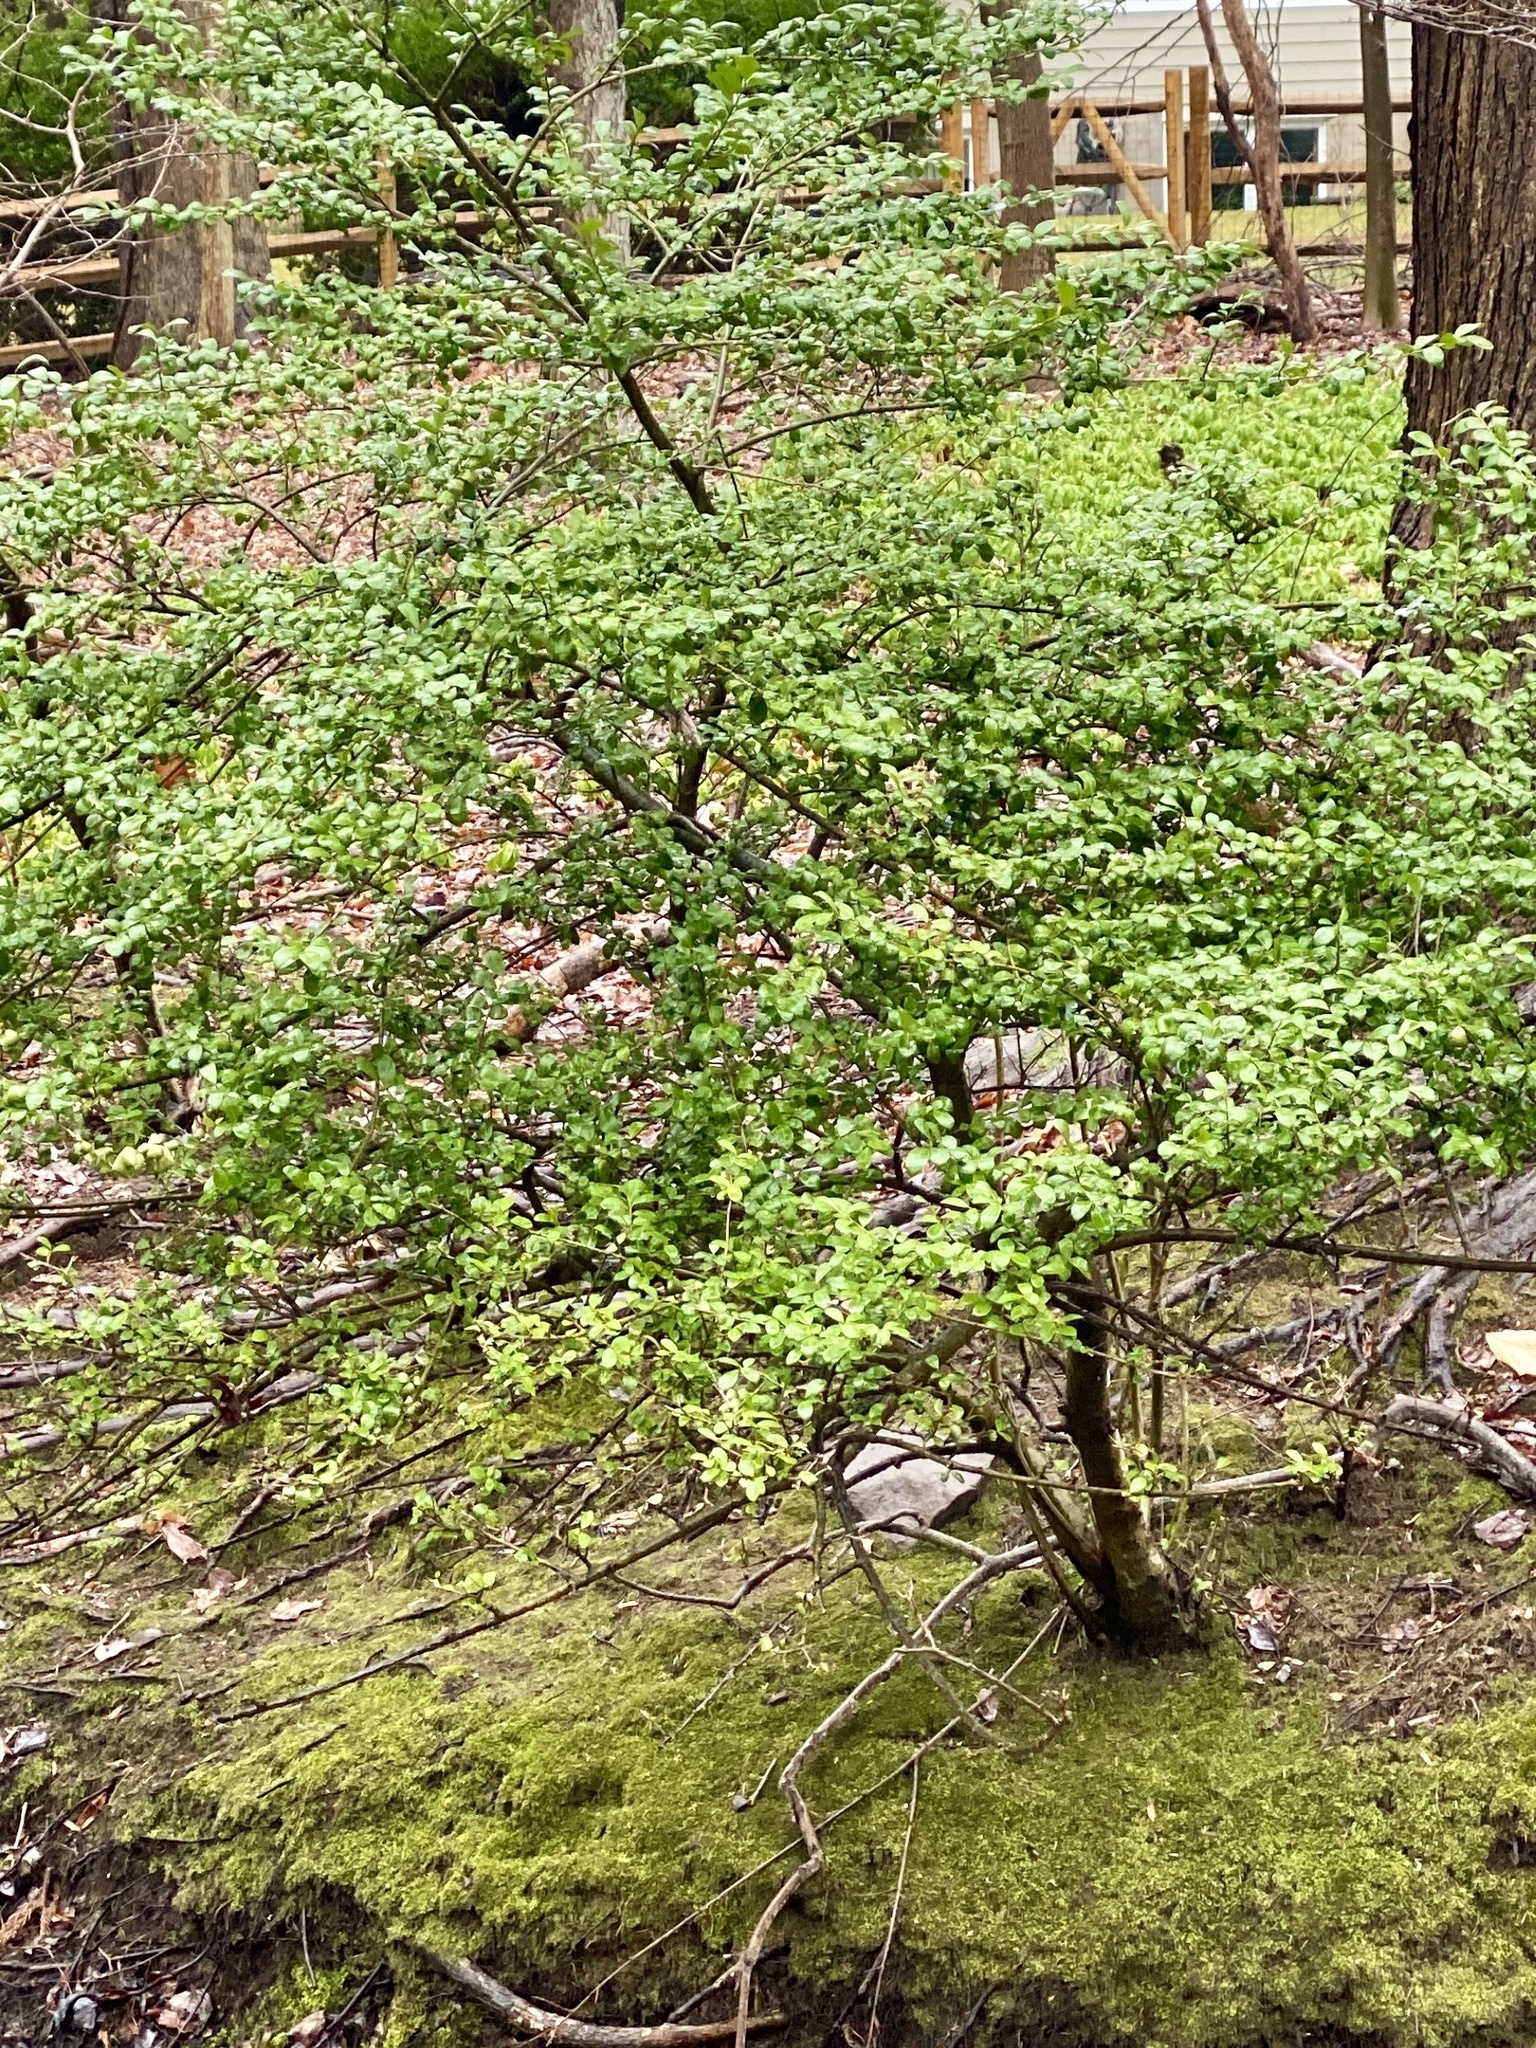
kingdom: Plantae
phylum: Tracheophyta
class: Magnoliopsida
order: Aquifoliales
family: Aquifoliaceae
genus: Ilex
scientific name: Ilex crenata
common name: Japanese holly
